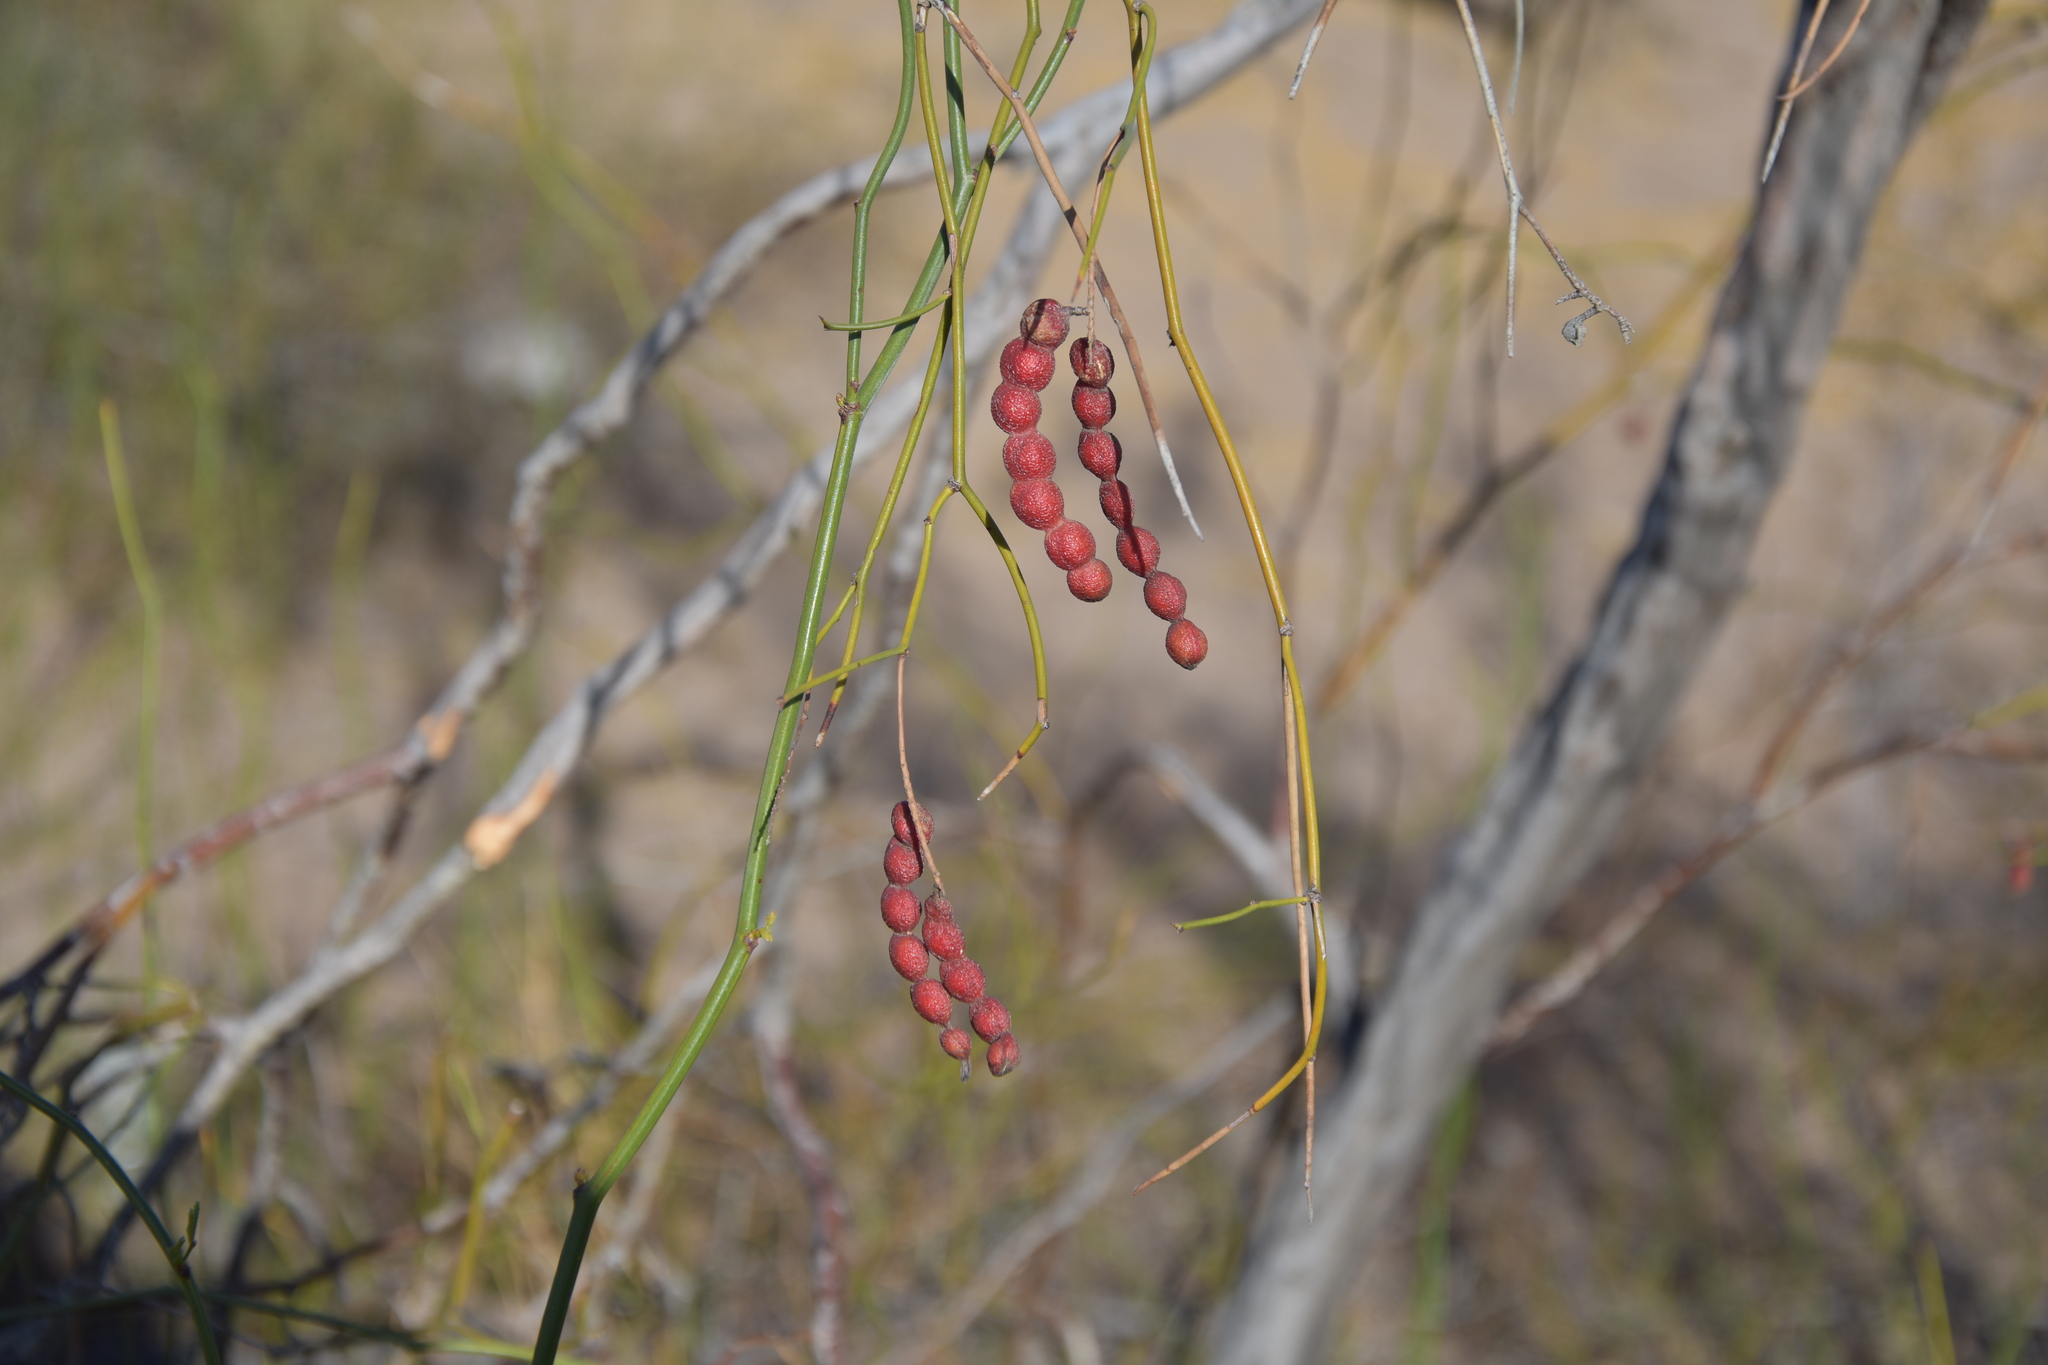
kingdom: Plantae
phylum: Tracheophyta
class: Magnoliopsida
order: Fabales
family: Fabaceae
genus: Prosopis
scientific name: Prosopis argentina
